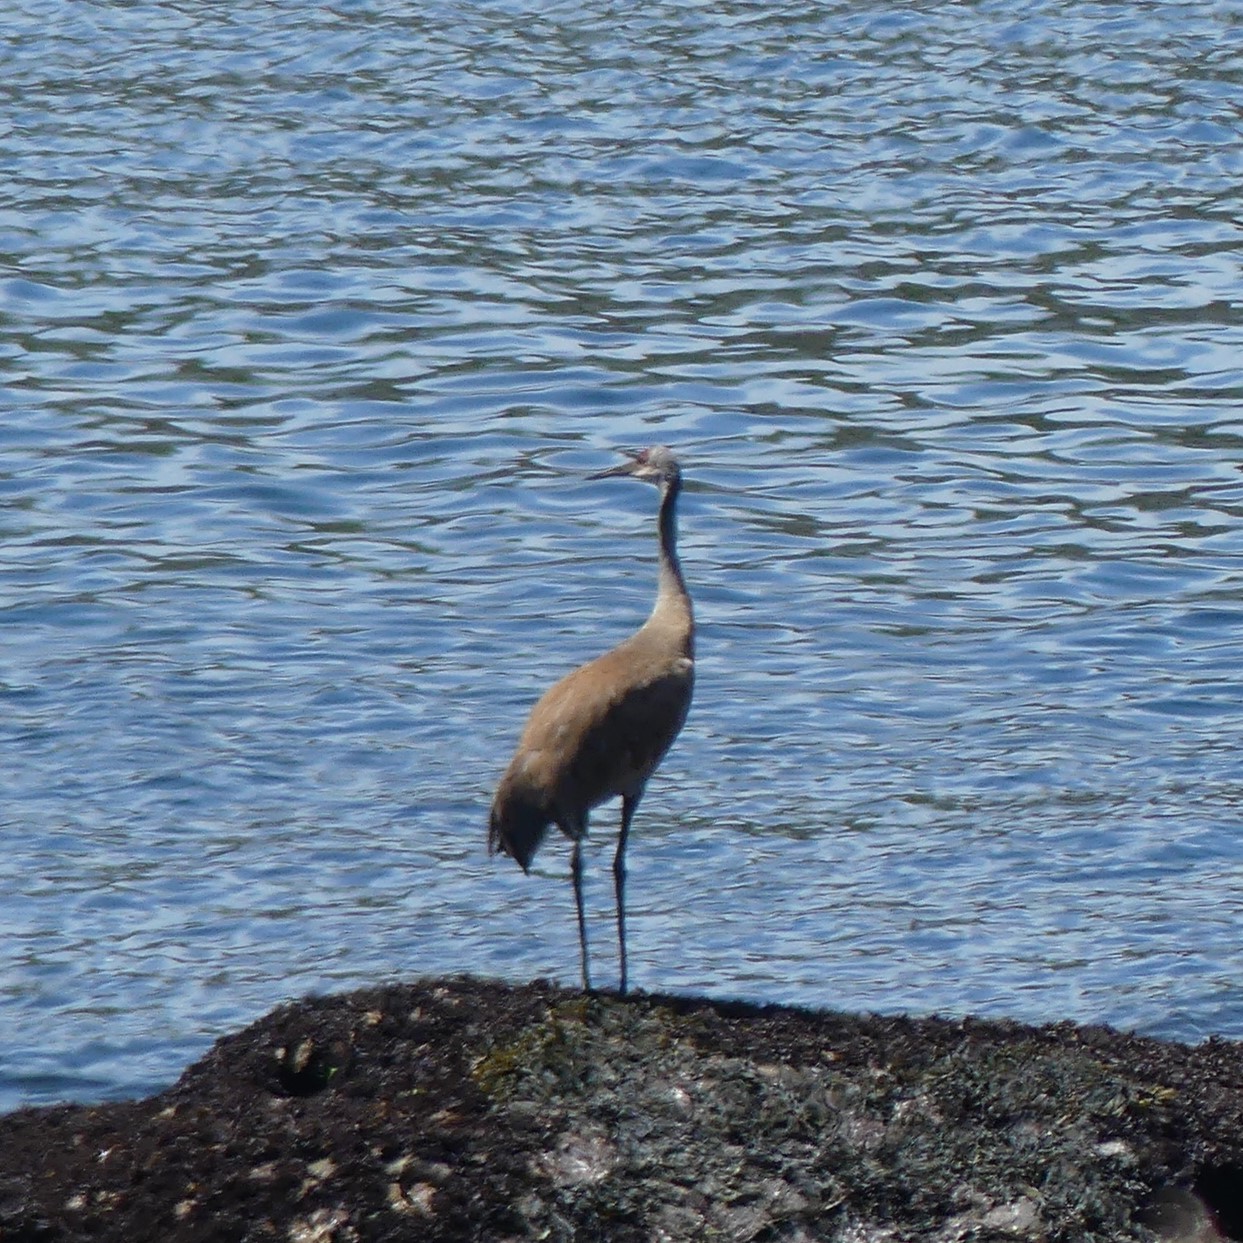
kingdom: Animalia
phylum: Chordata
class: Aves
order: Gruiformes
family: Gruidae
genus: Grus
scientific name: Grus canadensis
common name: Sandhill crane
